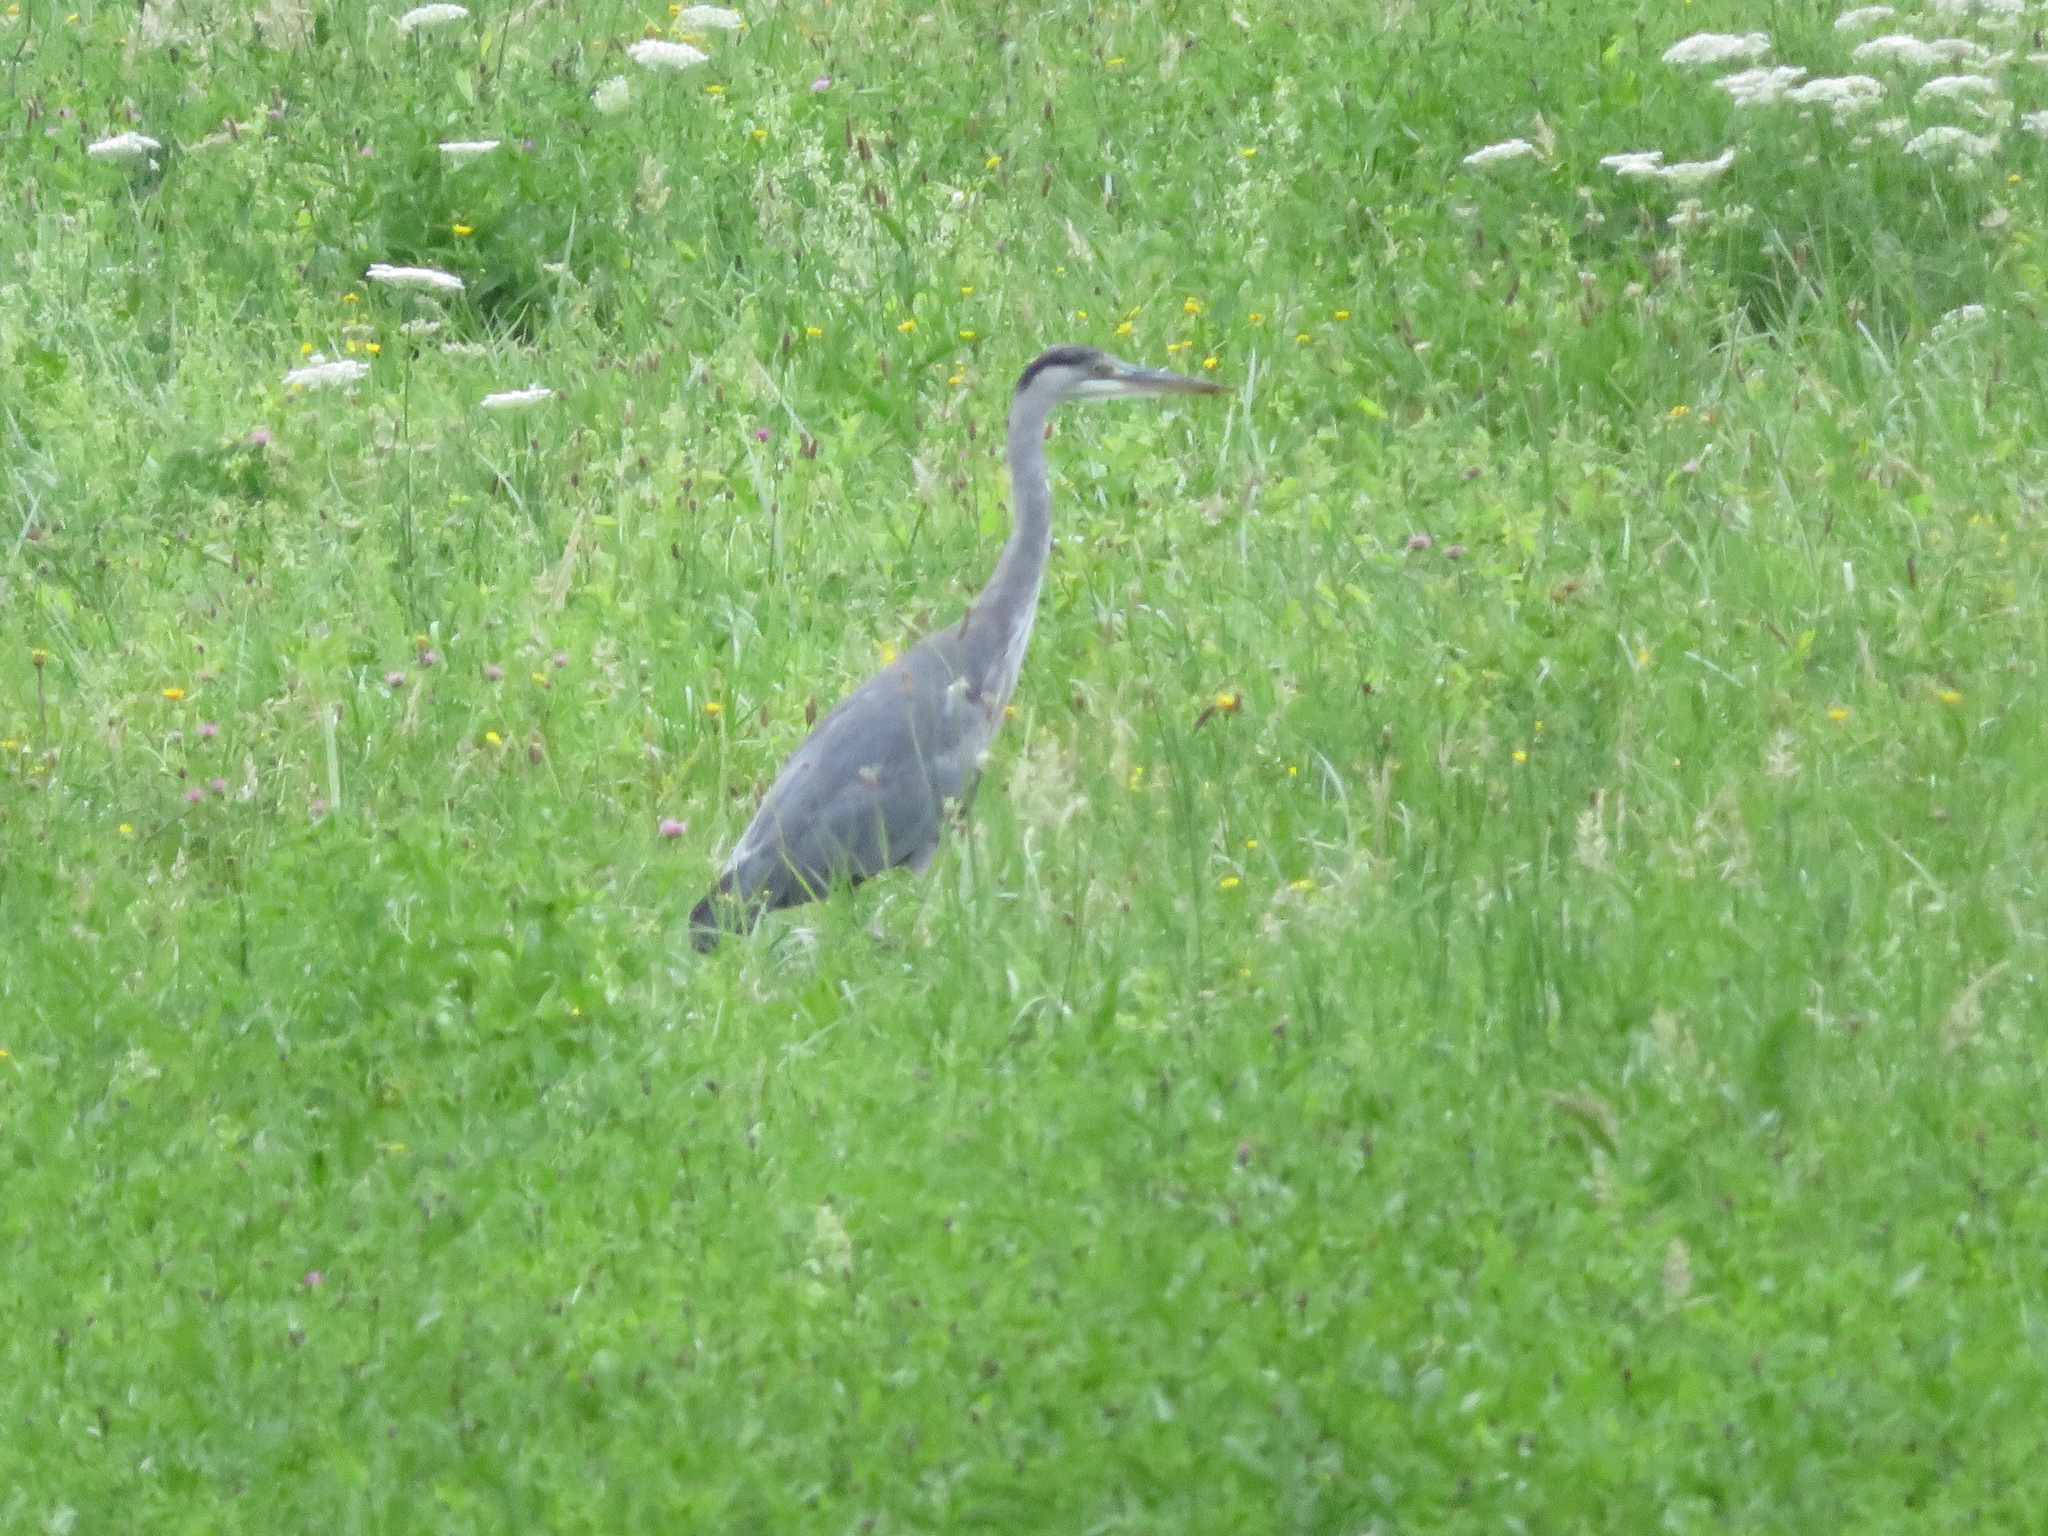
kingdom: Animalia
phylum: Chordata
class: Aves
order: Pelecaniformes
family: Ardeidae
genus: Ardea
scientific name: Ardea cinerea
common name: Grey heron
